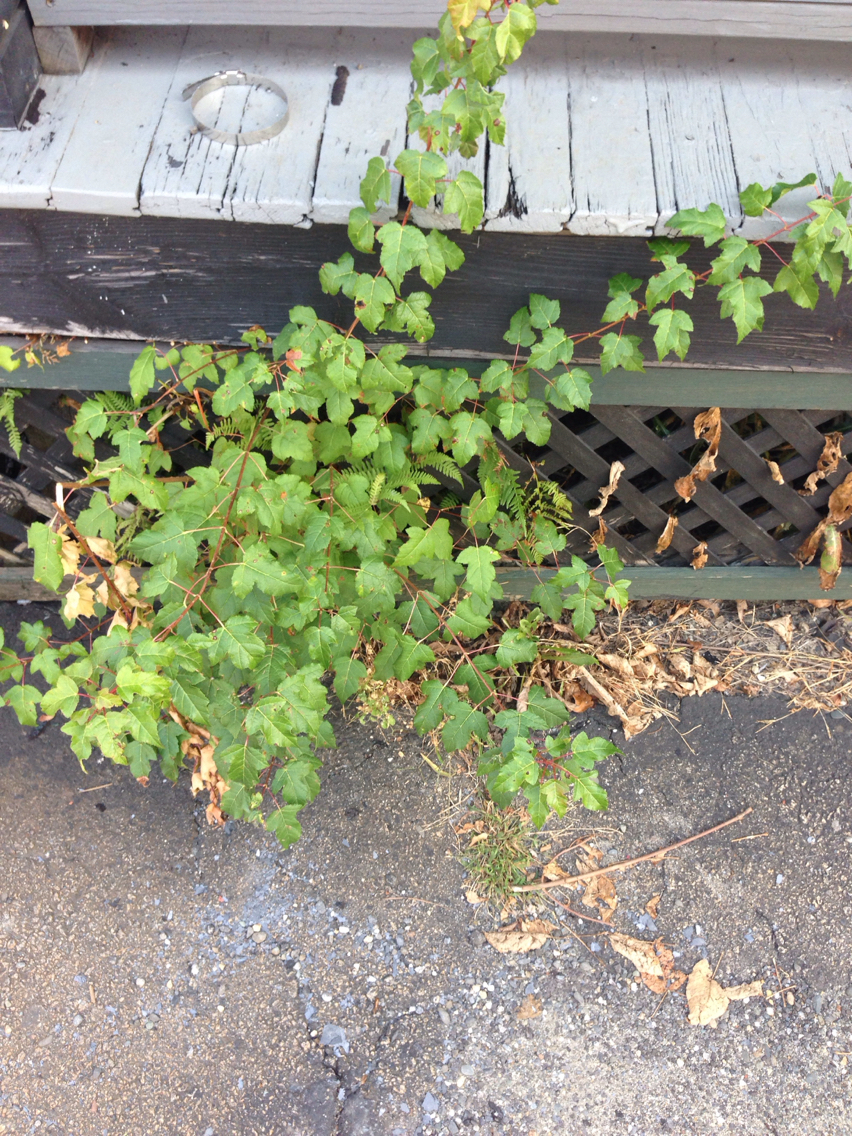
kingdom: Plantae
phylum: Tracheophyta
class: Magnoliopsida
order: Sapindales
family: Sapindaceae
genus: Acer
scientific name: Acer tataricum
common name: Tartar maple
